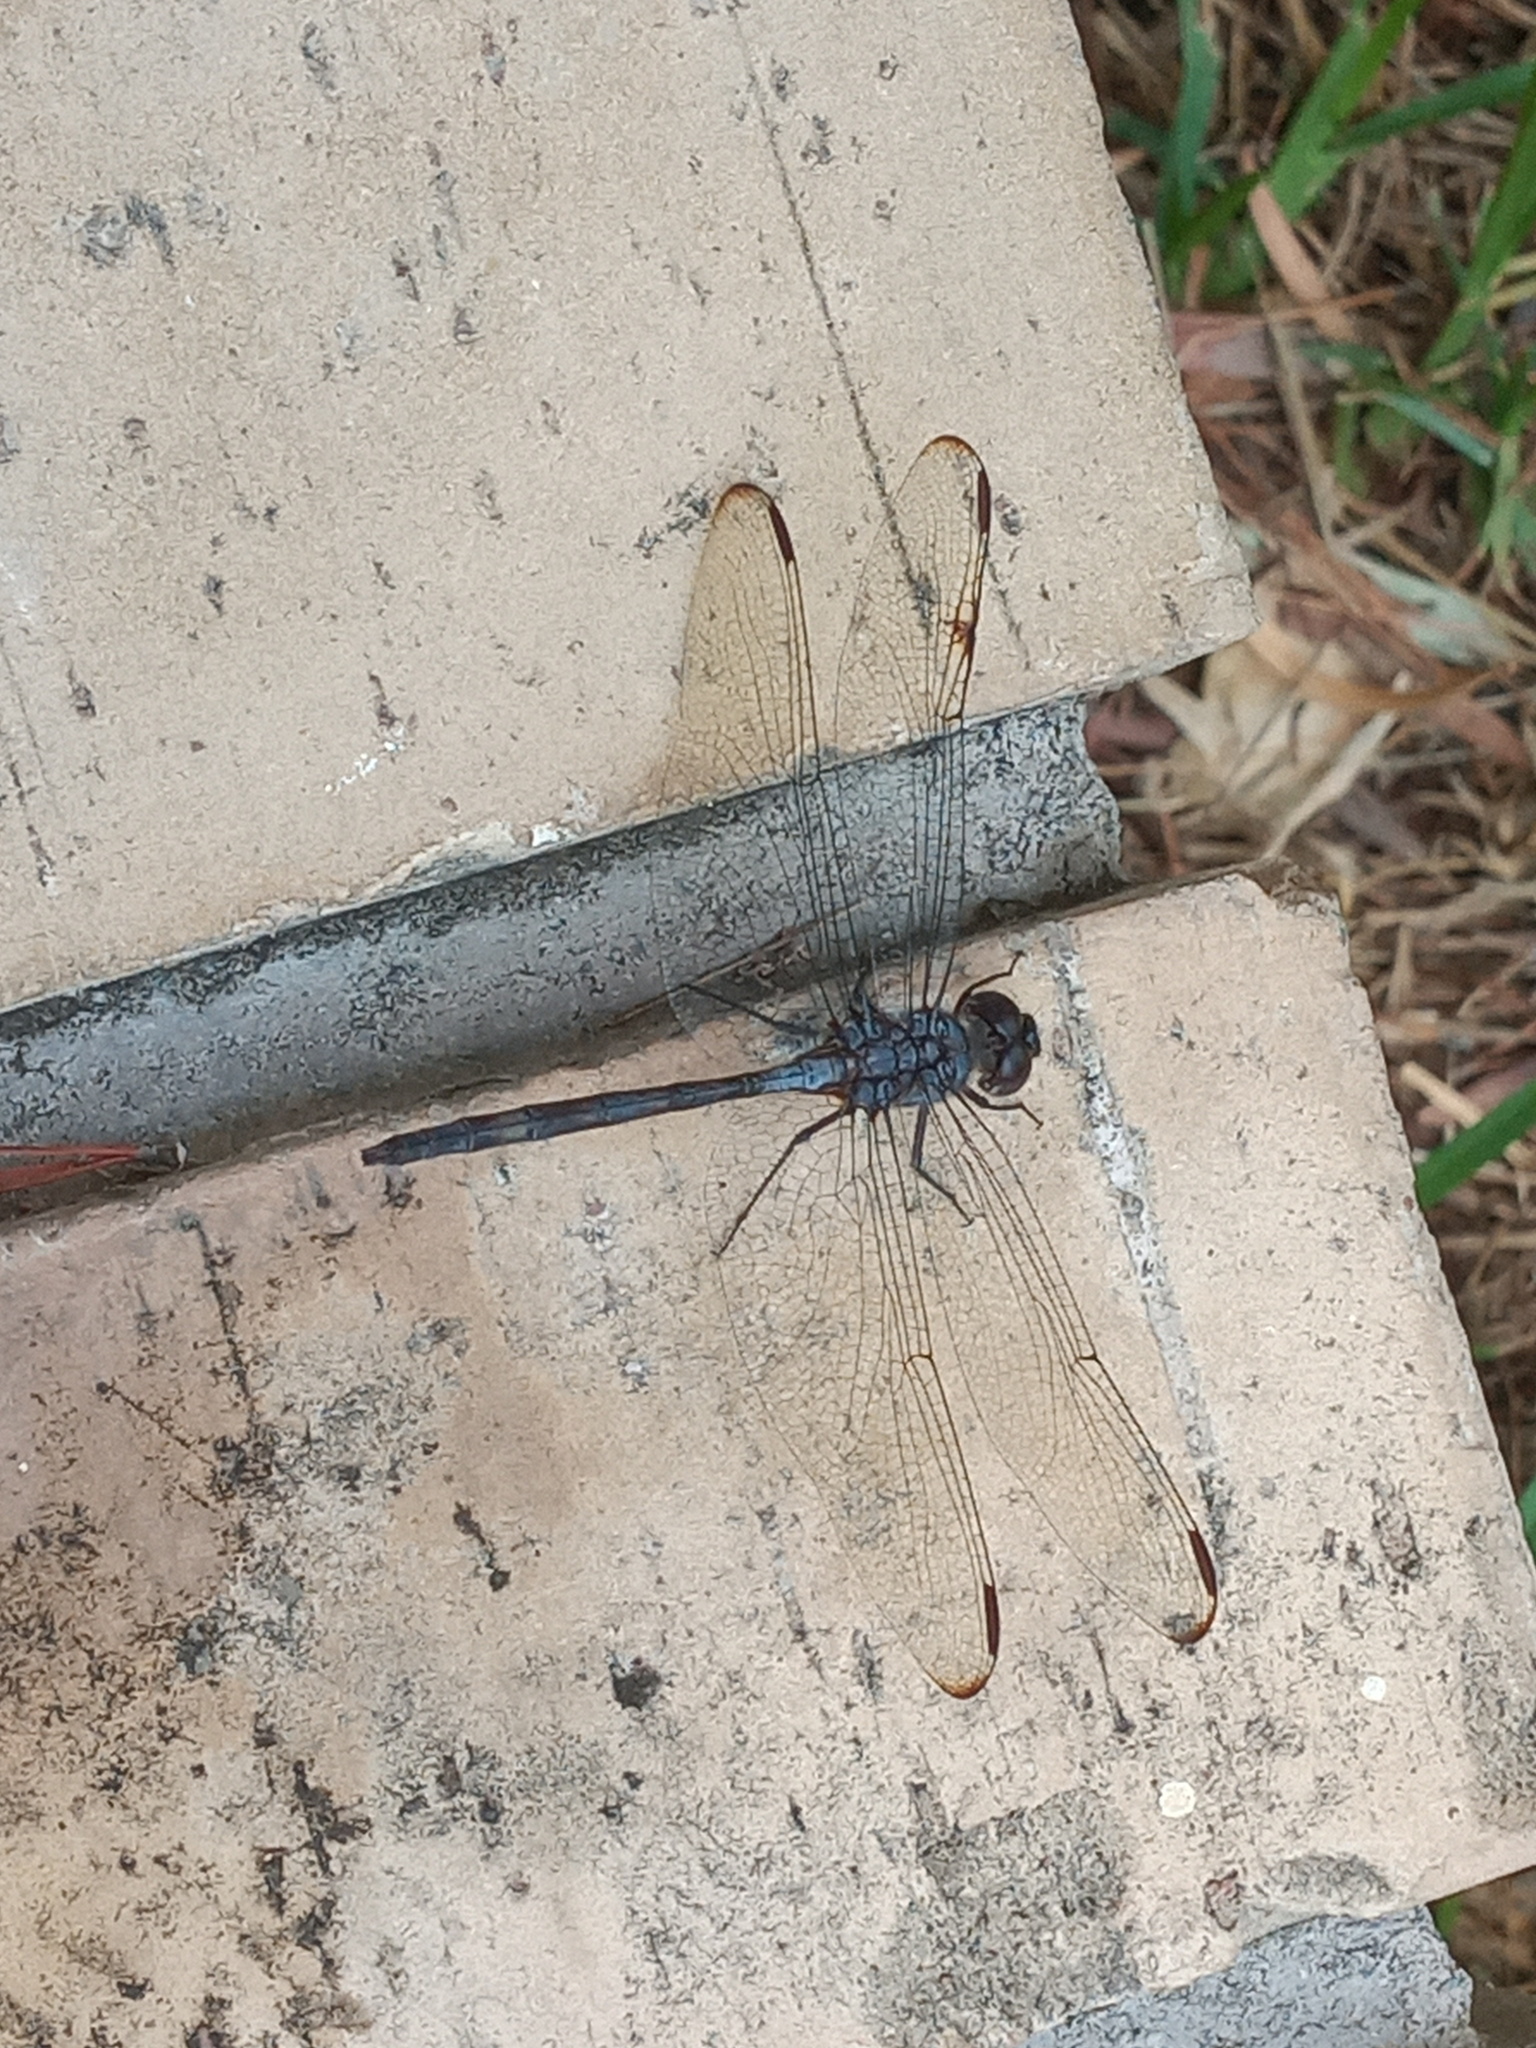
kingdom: Animalia
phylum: Arthropoda
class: Insecta
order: Odonata
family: Libellulidae
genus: Dythemis
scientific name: Dythemis nigrescens
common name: Black setwing
